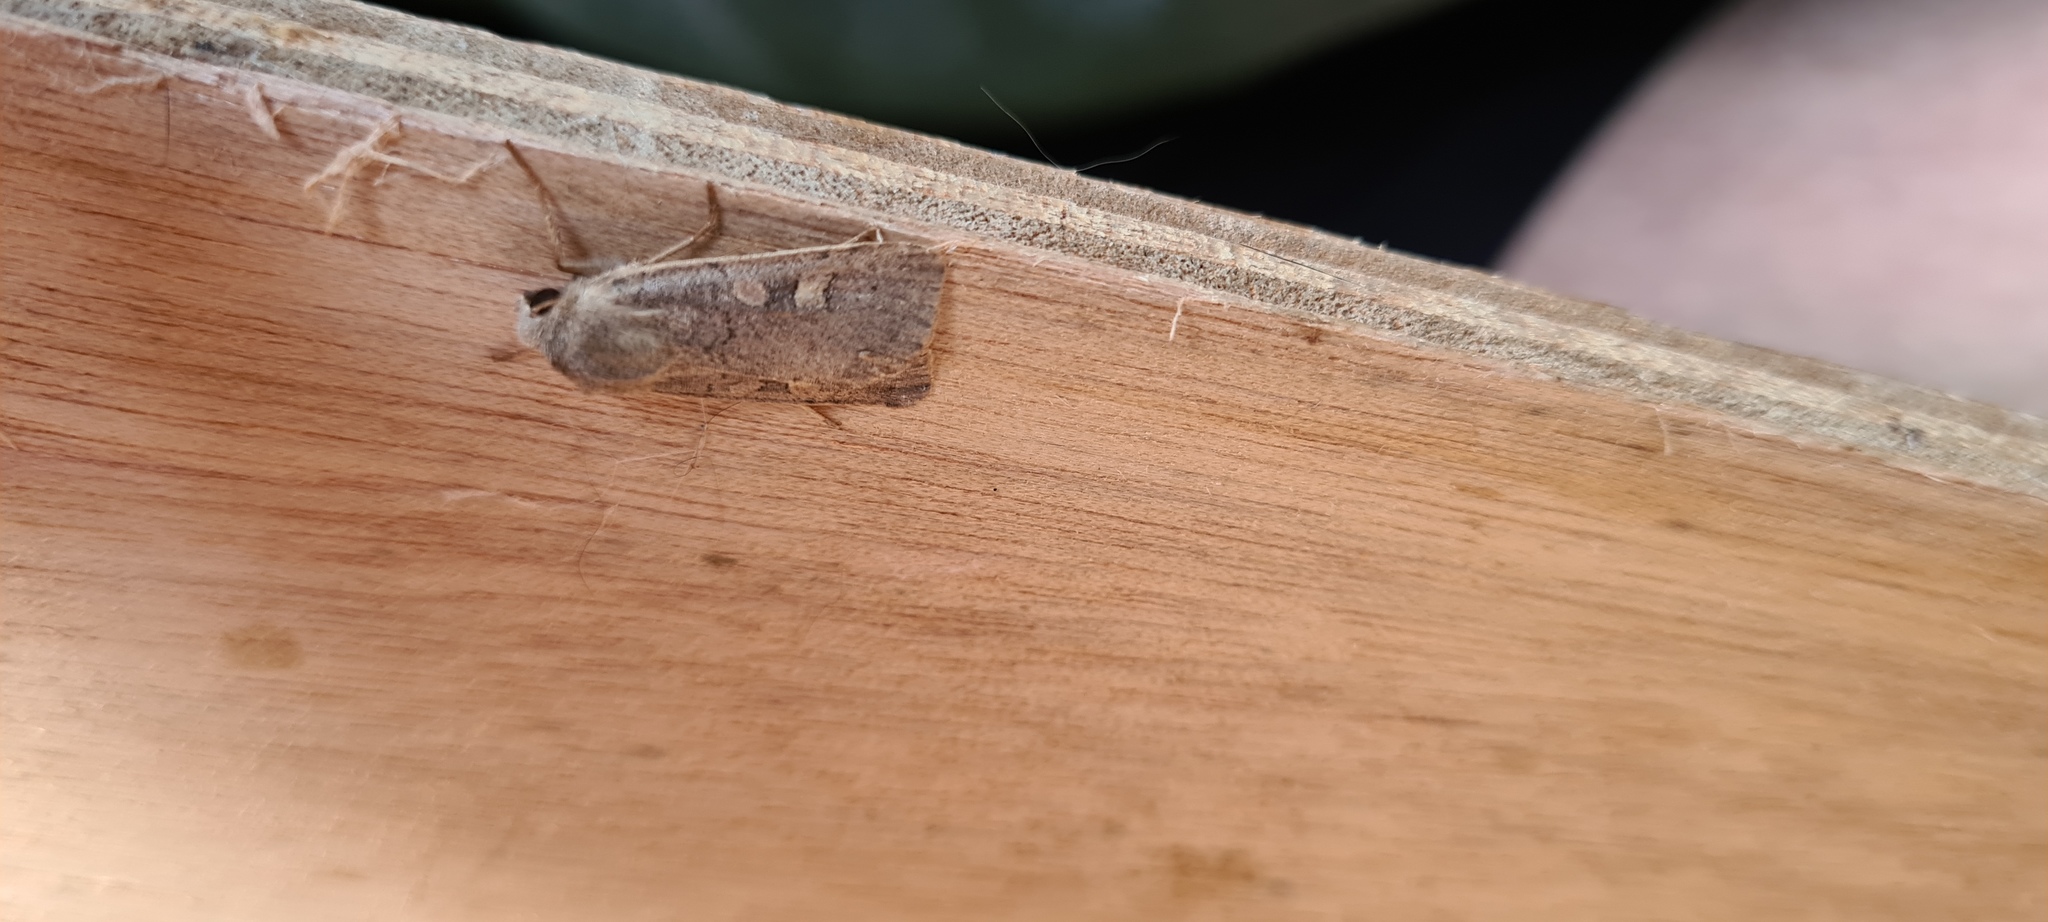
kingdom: Animalia
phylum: Arthropoda
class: Insecta
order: Lepidoptera
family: Noctuidae
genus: Xestia
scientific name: Xestia xanthographa
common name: Square-spot rustic
